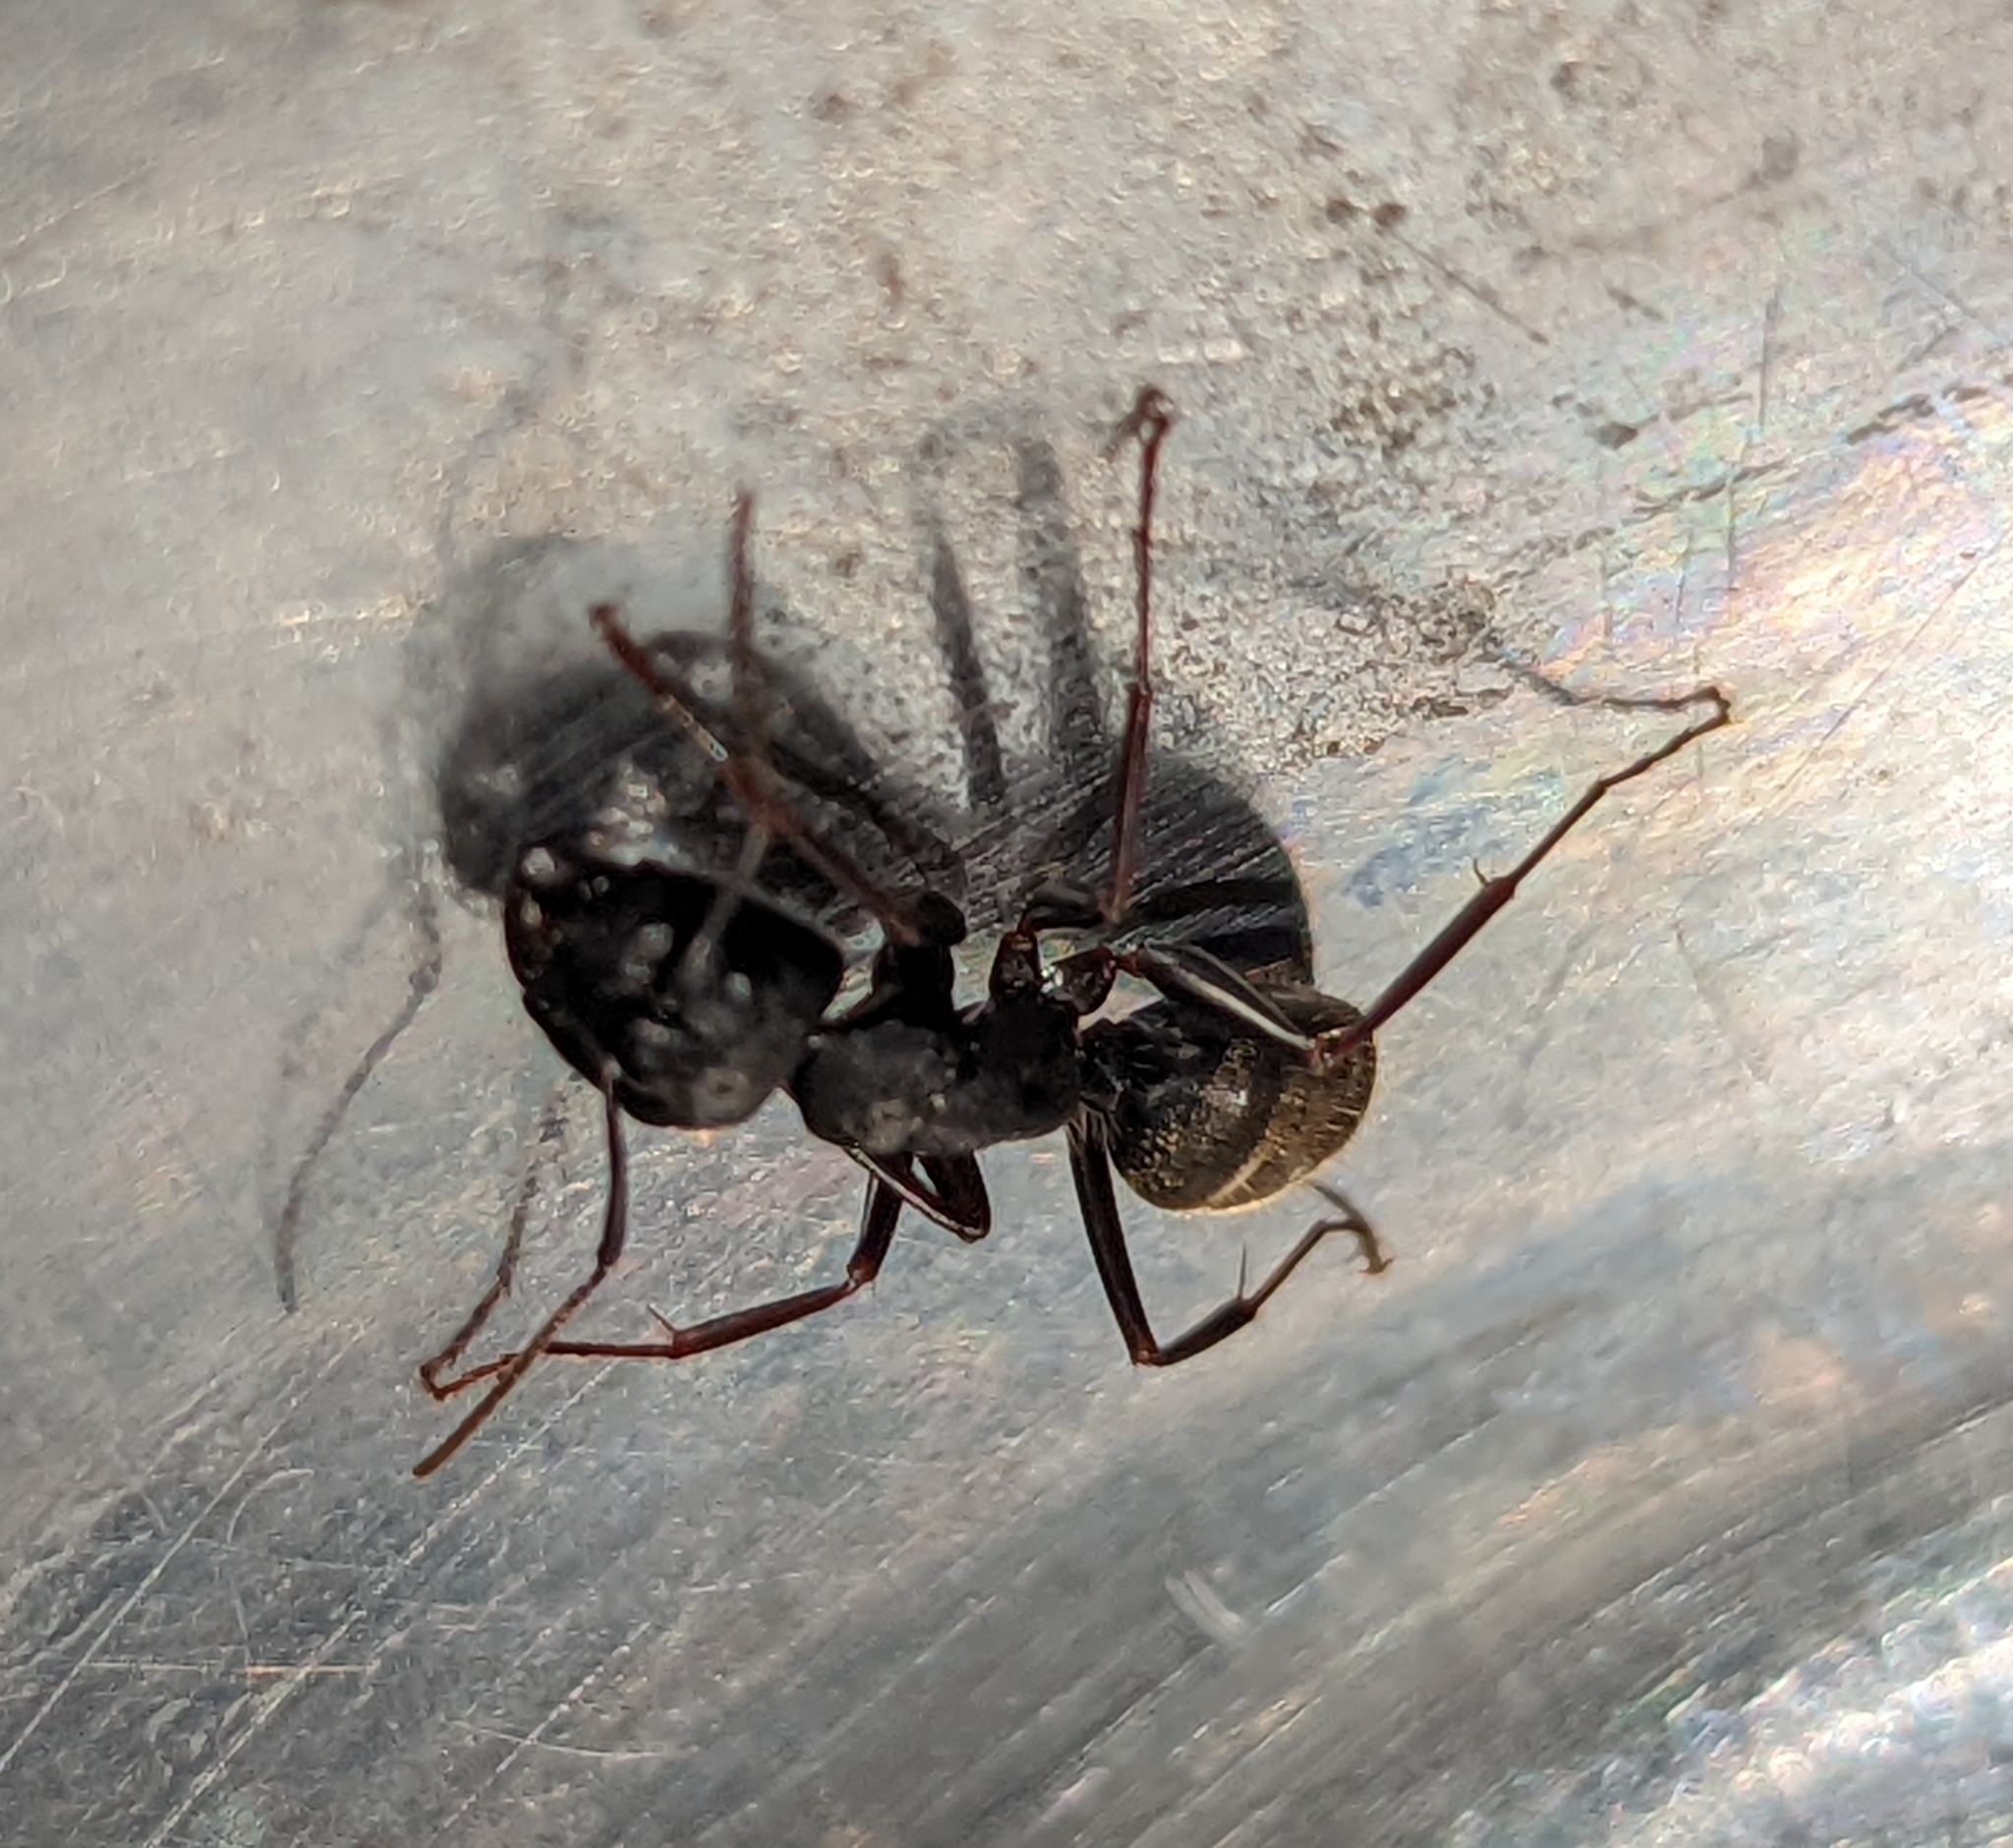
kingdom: Animalia
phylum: Arthropoda
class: Insecta
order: Hymenoptera
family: Formicidae
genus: Camponotus
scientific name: Camponotus pennsylvanicus
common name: Black carpenter ant
